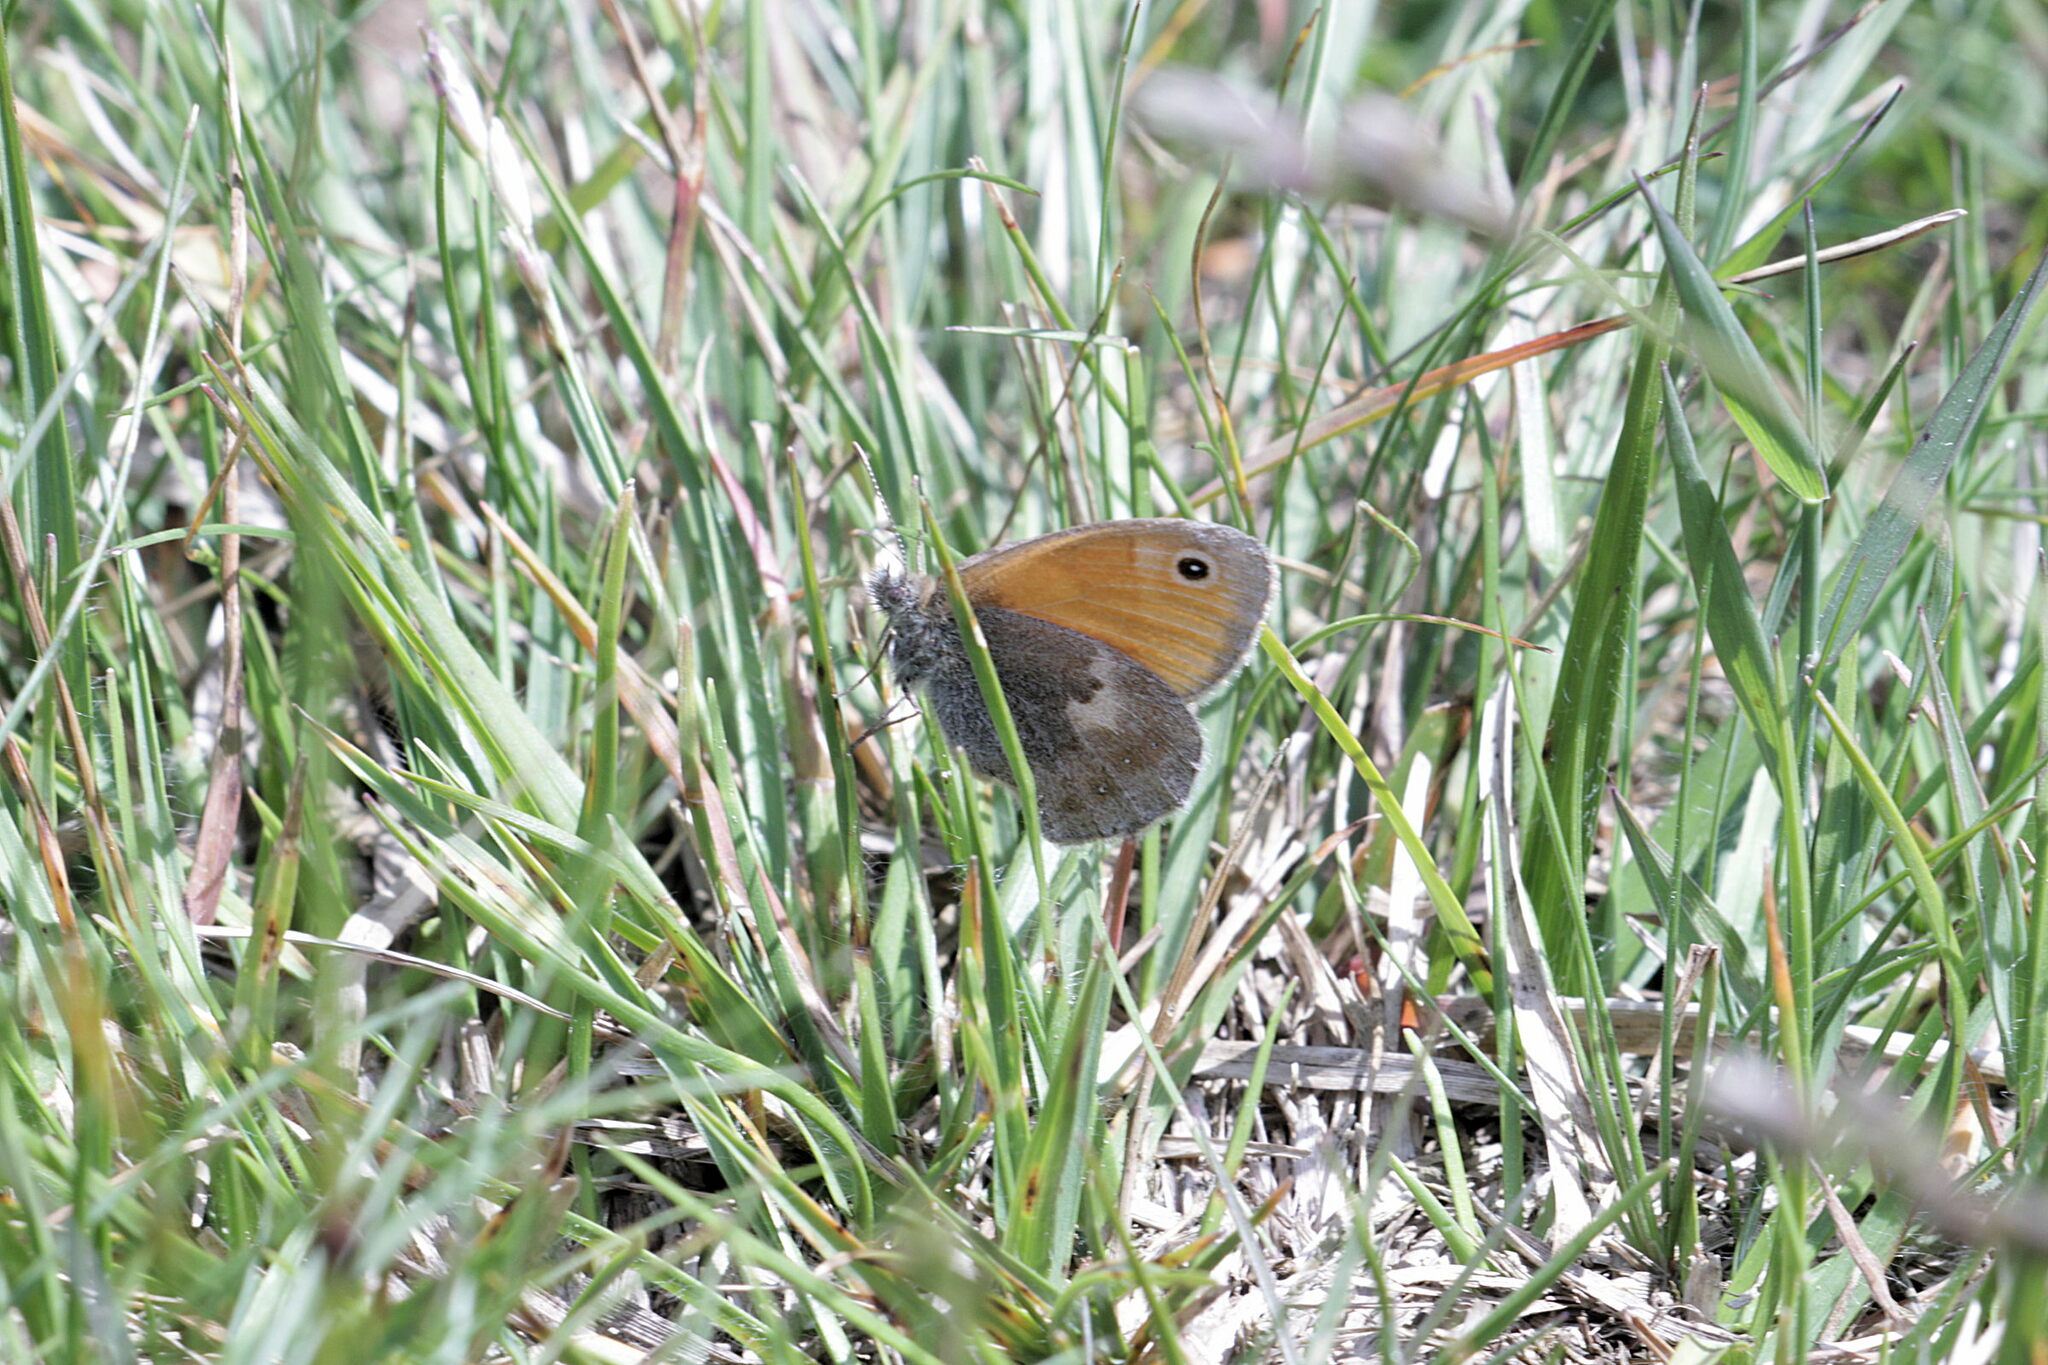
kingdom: Animalia
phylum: Arthropoda
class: Insecta
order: Lepidoptera
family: Nymphalidae
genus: Coenonympha
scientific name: Coenonympha pamphilus
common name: Small heath
